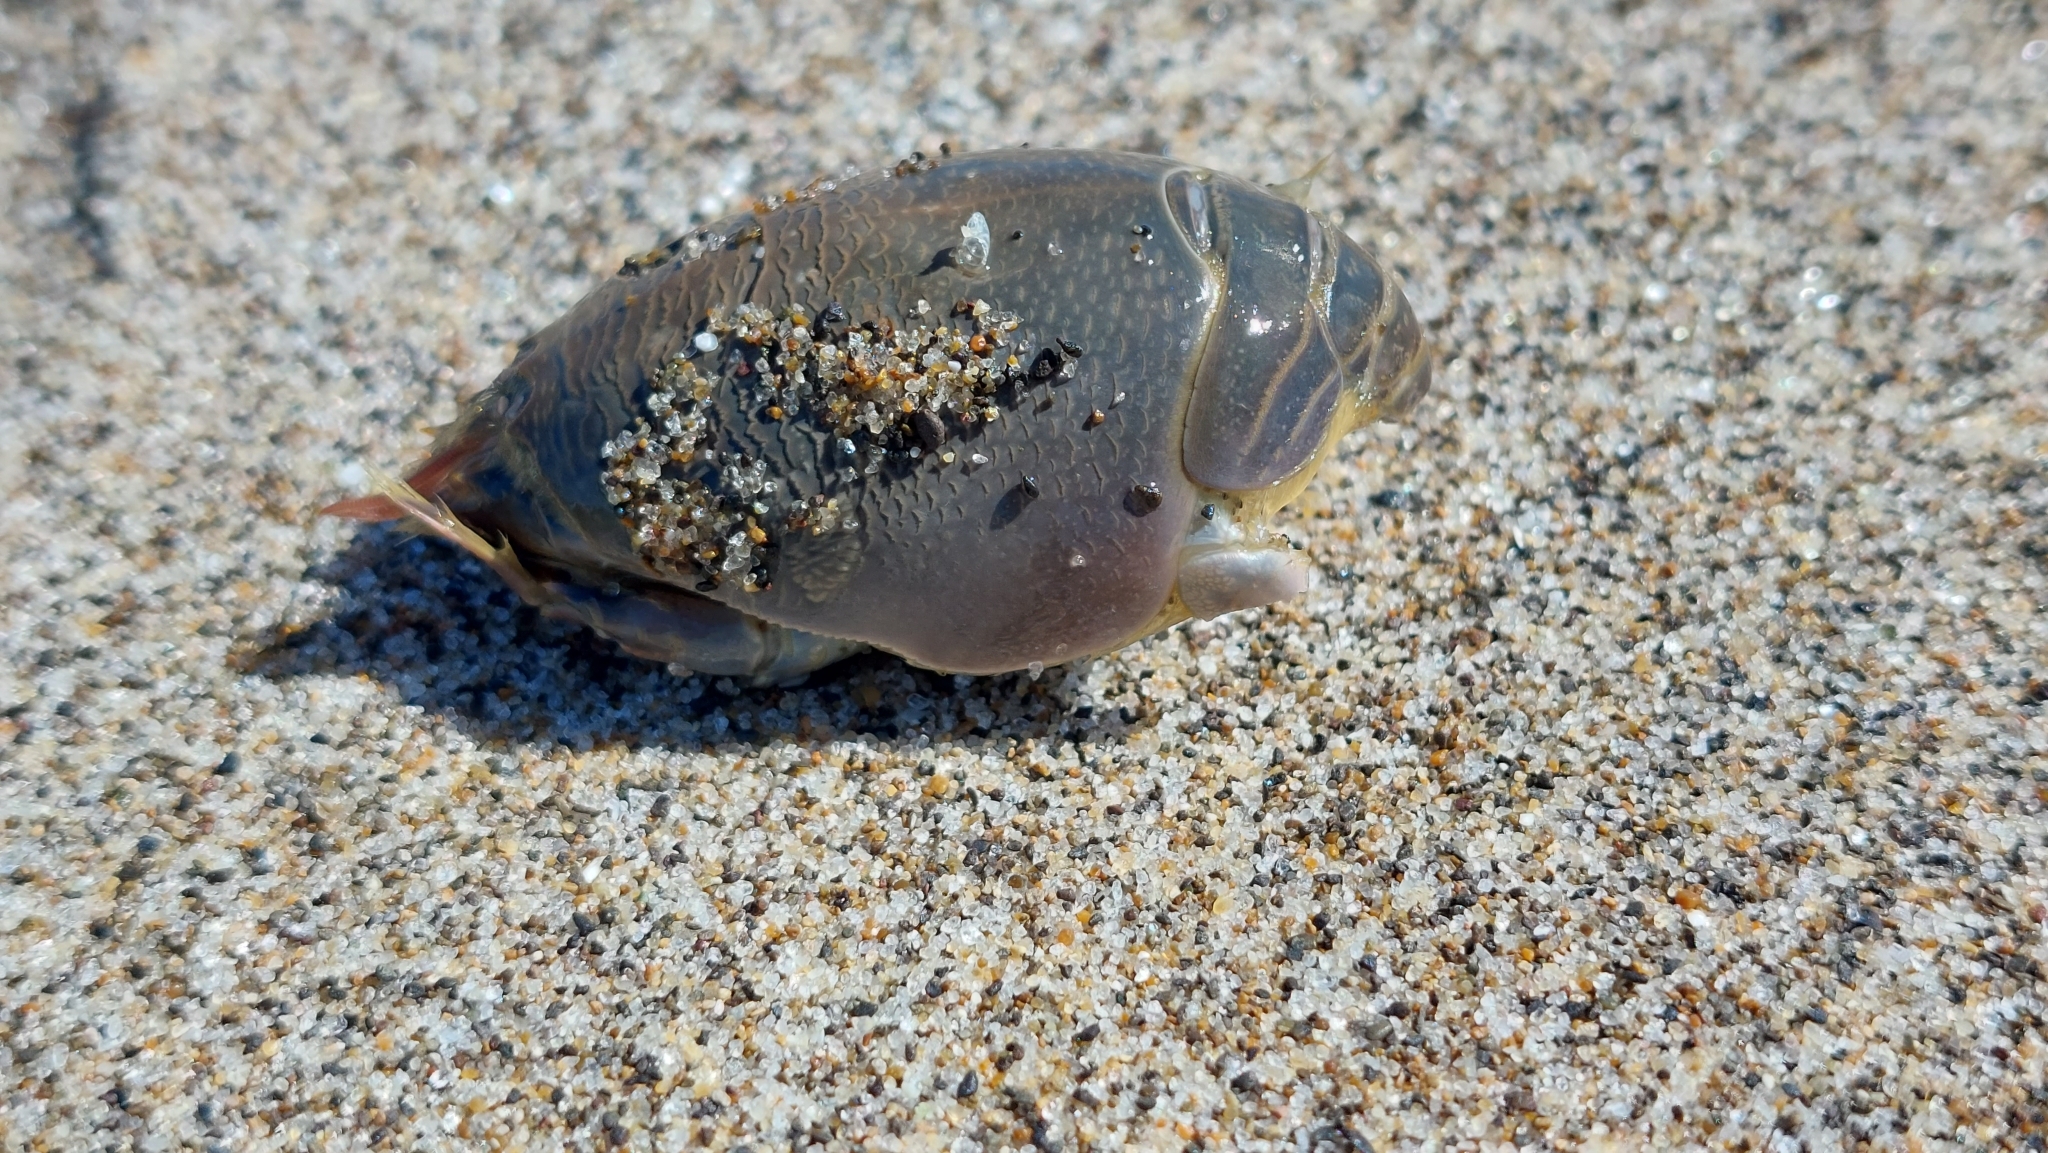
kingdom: Animalia
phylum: Arthropoda
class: Malacostraca
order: Decapoda
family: Hippidae
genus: Emerita
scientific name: Emerita analoga
